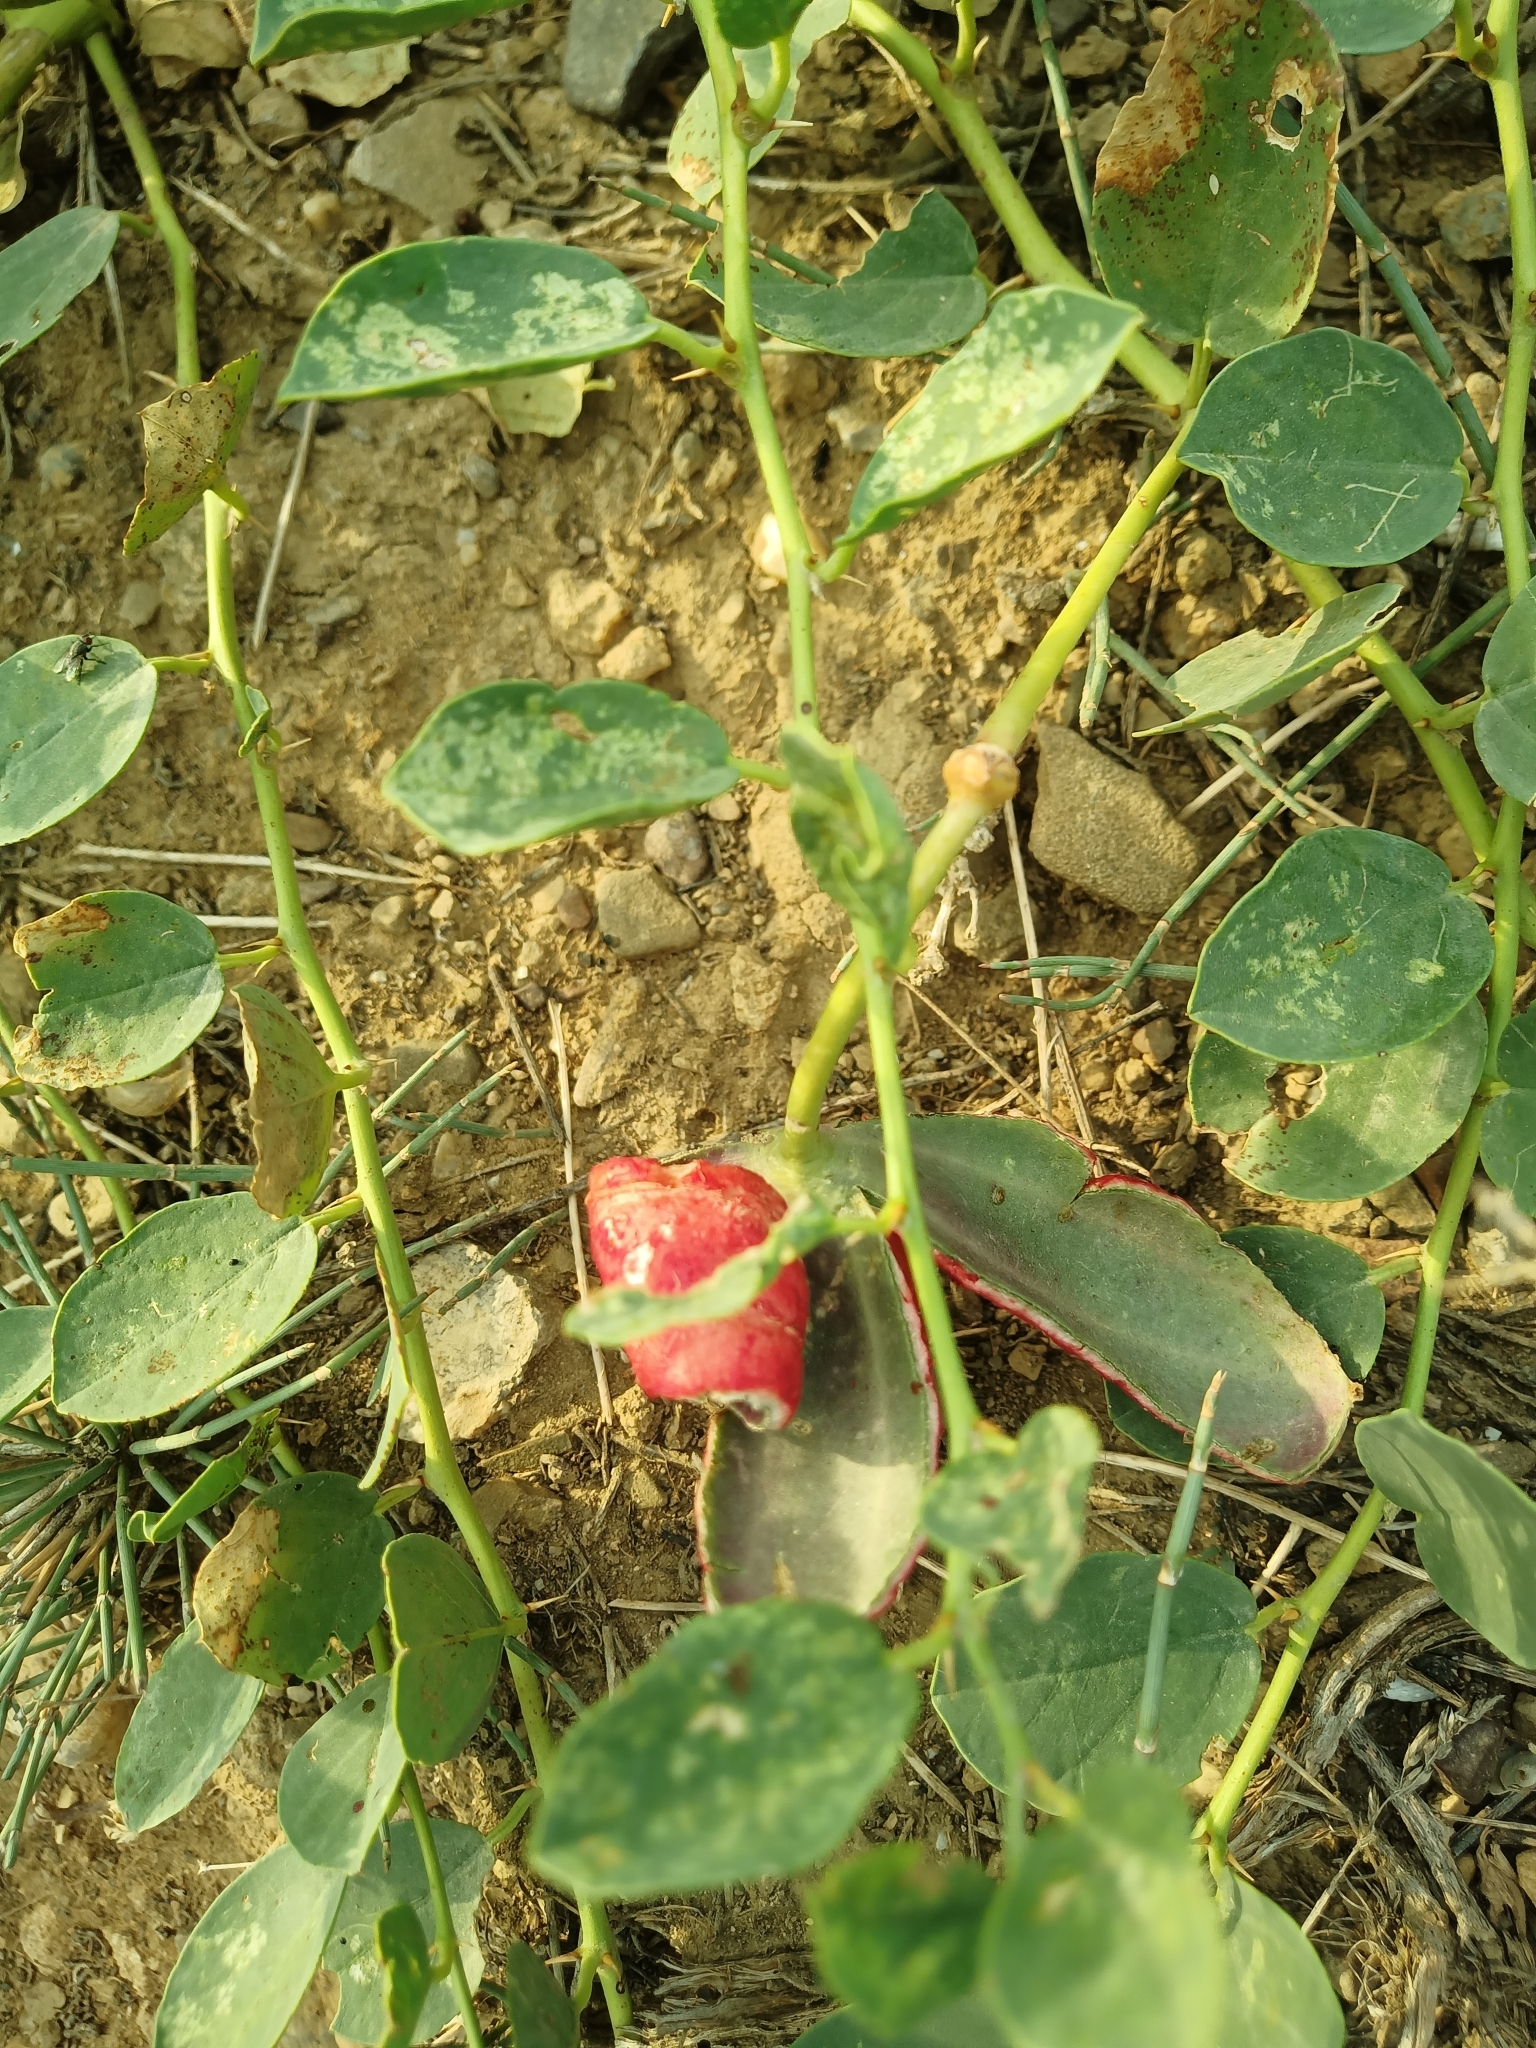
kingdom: Plantae
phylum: Tracheophyta
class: Magnoliopsida
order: Brassicales
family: Capparaceae
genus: Capparis
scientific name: Capparis spinosa
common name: Caper
